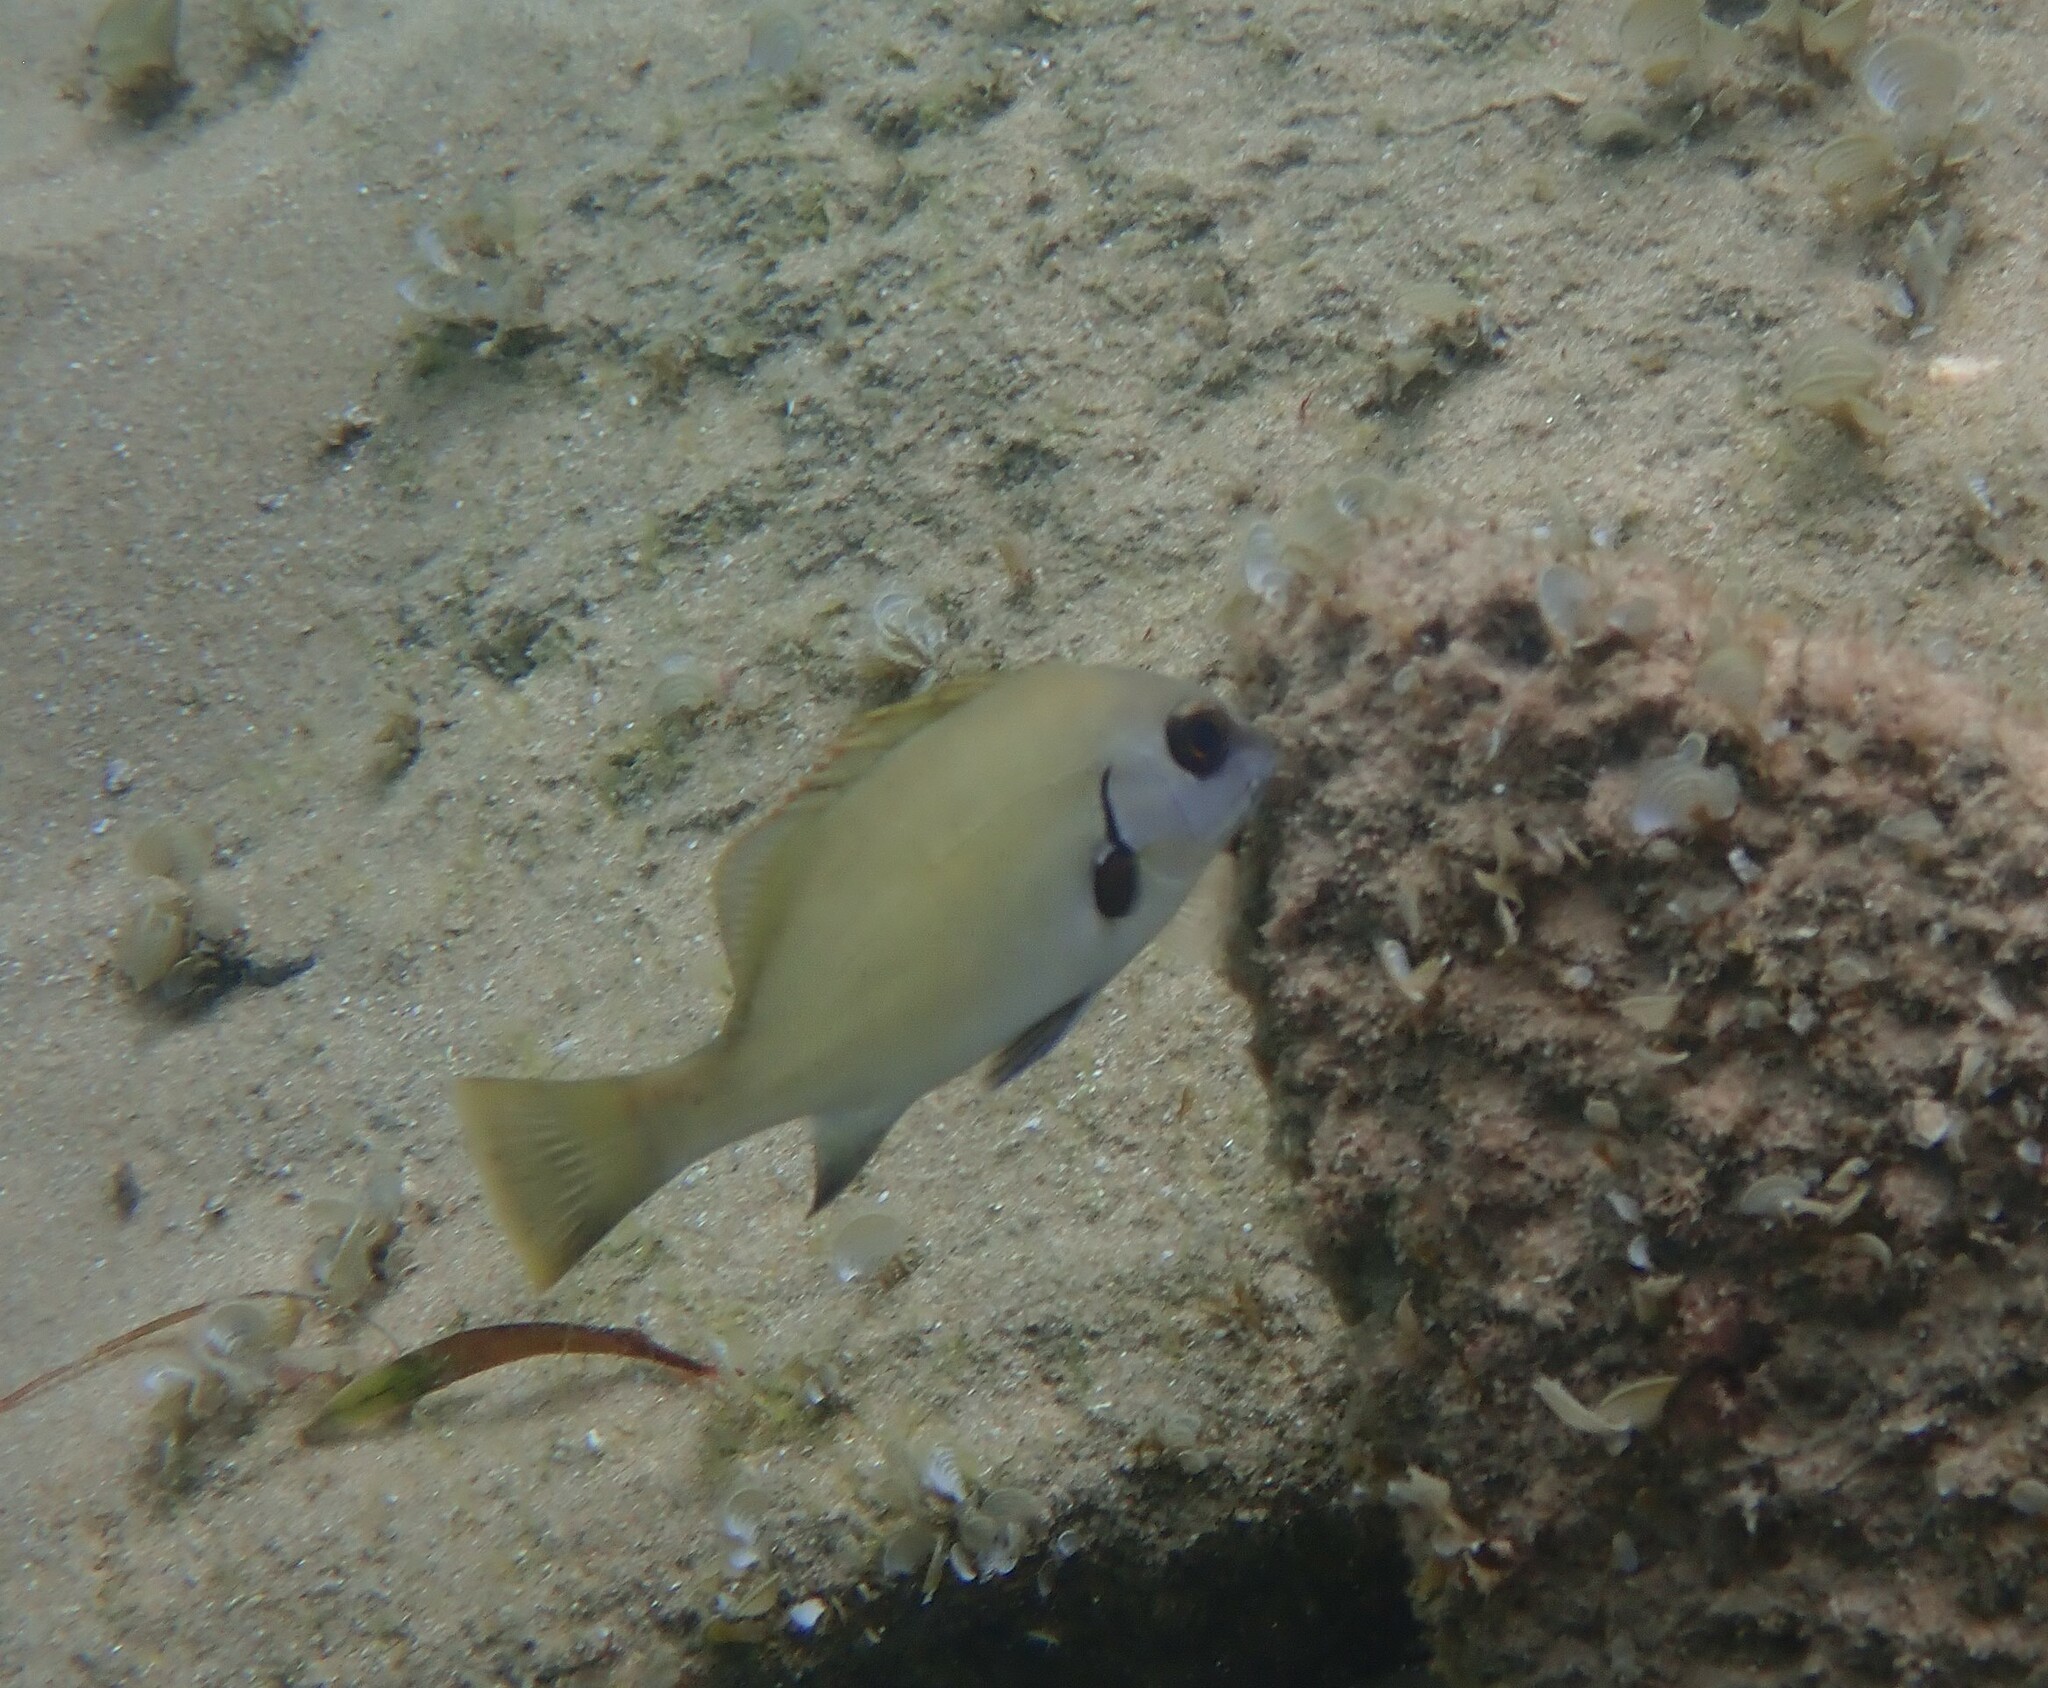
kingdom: Animalia
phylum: Chordata
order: Perciformes
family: Haemulidae
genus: Plectorhinchus
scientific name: Plectorhinchus sordidus
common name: Sordid rubberlip
